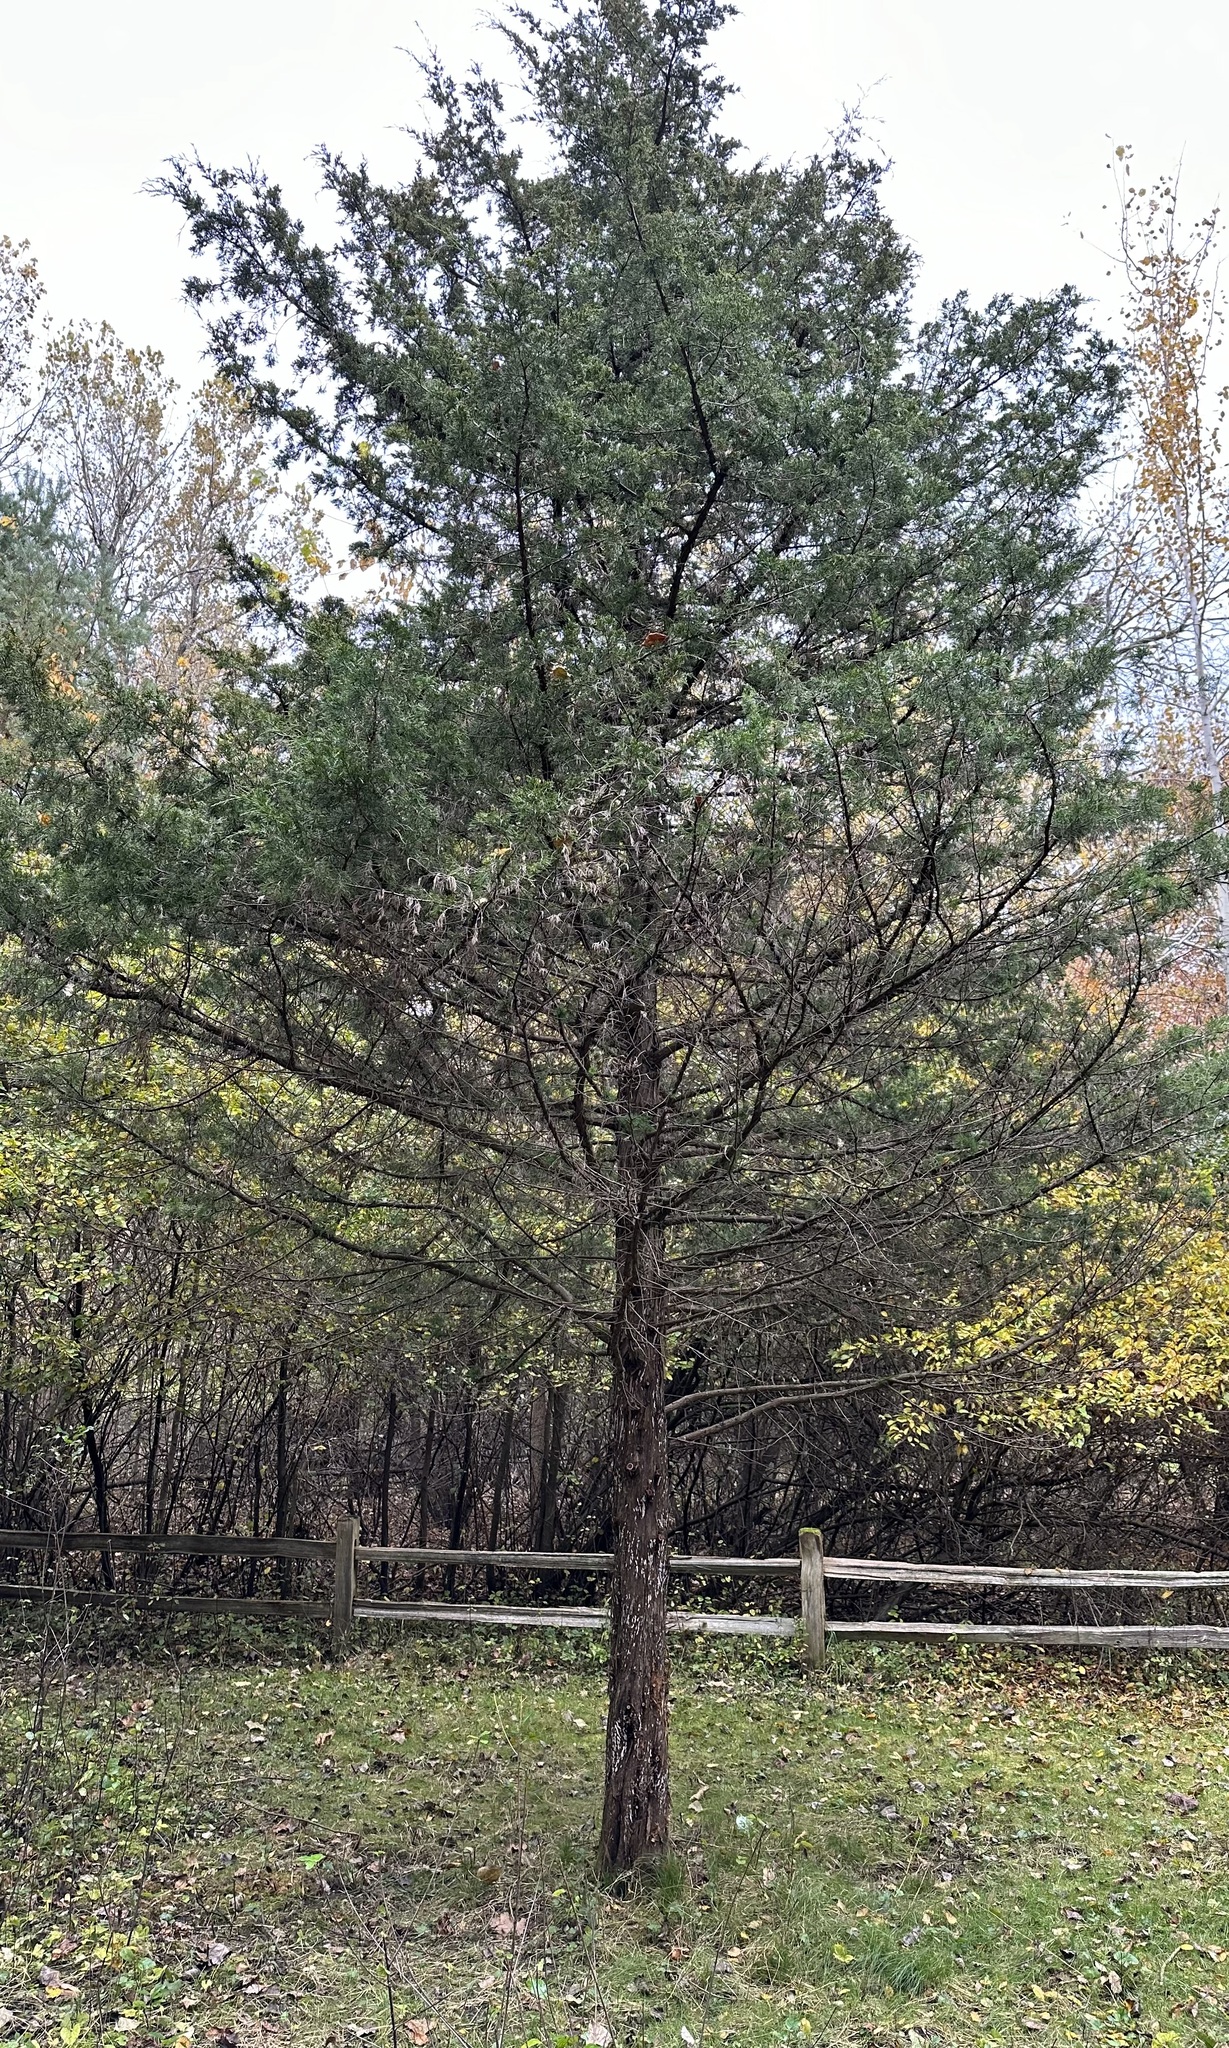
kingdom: Plantae
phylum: Tracheophyta
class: Pinopsida
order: Pinales
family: Cupressaceae
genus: Juniperus
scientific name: Juniperus virginiana
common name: Red juniper
